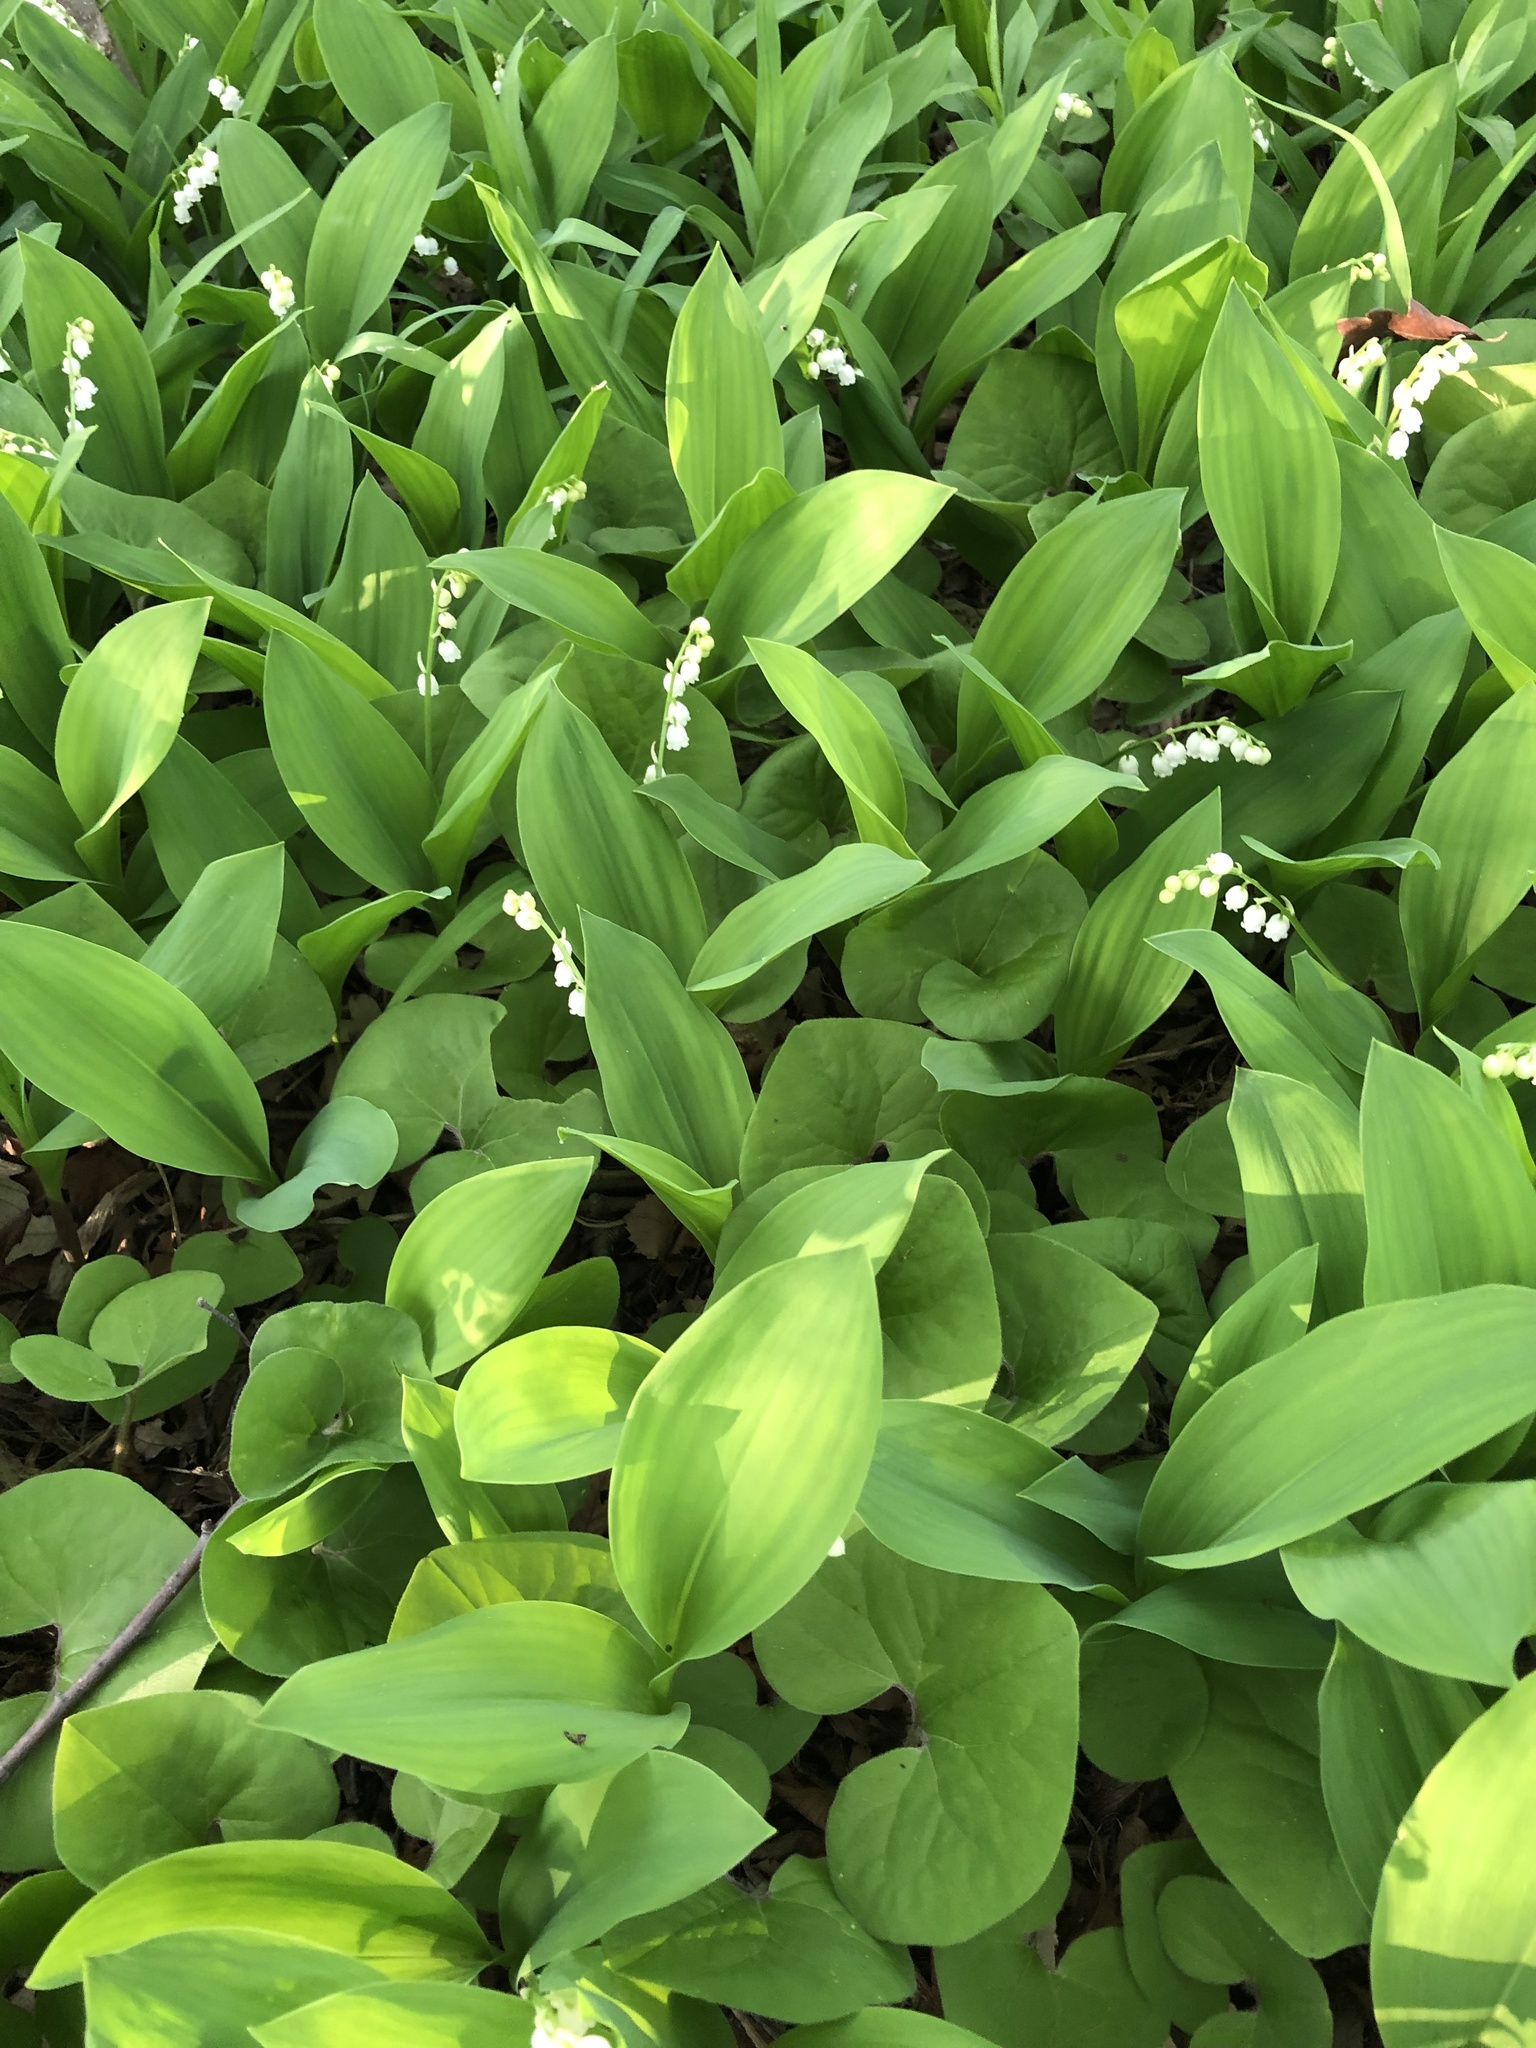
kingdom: Plantae
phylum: Tracheophyta
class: Liliopsida
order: Asparagales
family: Asparagaceae
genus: Convallaria
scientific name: Convallaria majalis
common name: Lily-of-the-valley
